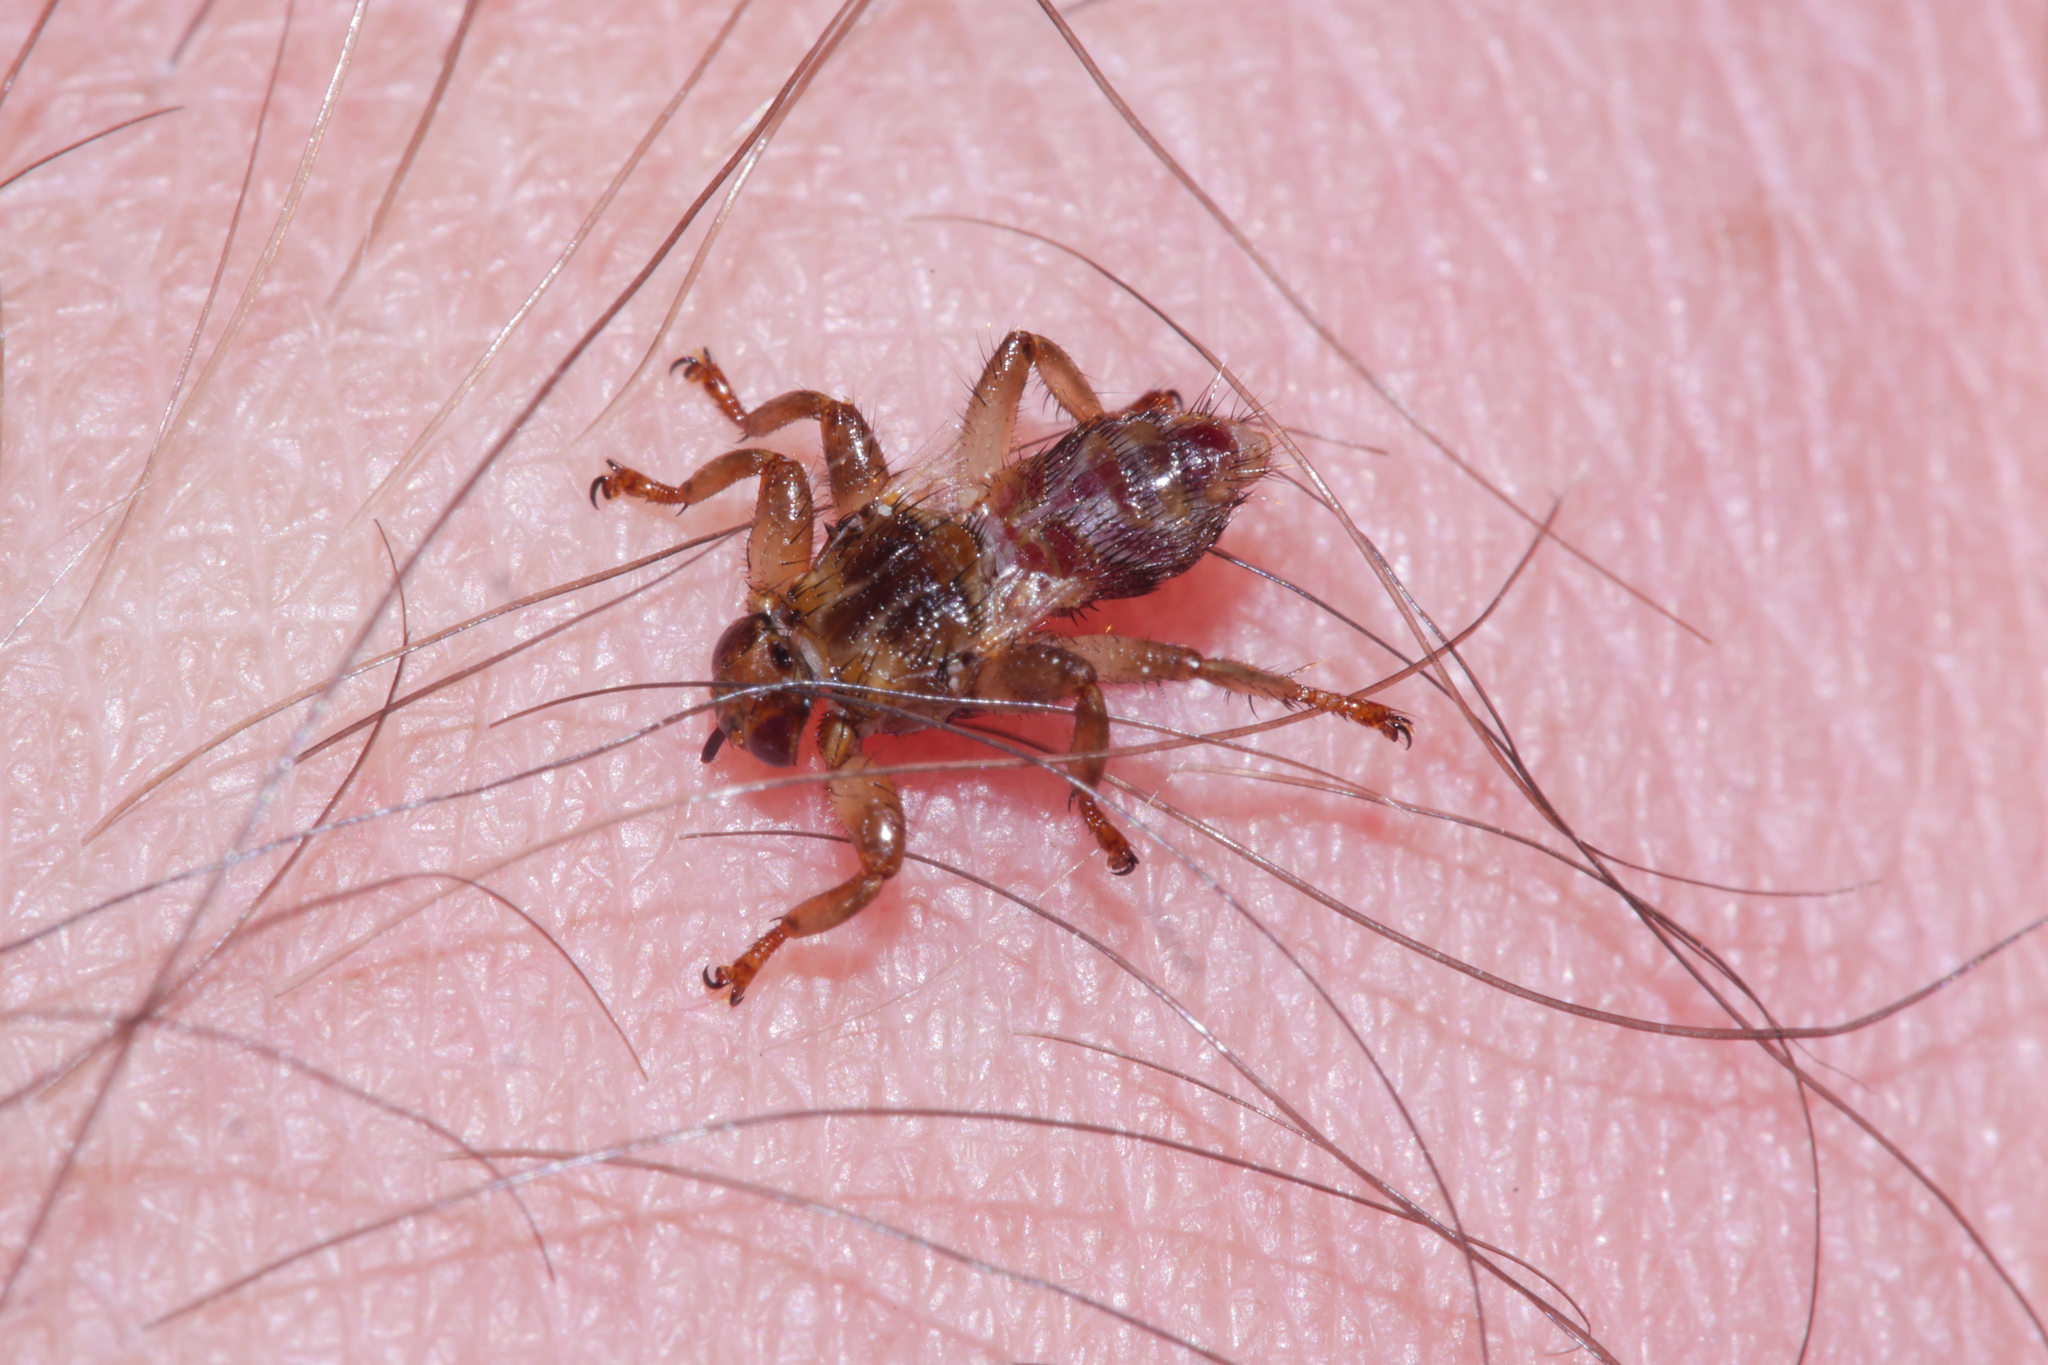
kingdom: Animalia
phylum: Arthropoda
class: Insecta
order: Diptera
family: Hippoboscidae
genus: Lipoptena
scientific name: Lipoptena cervi
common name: Deer ked
